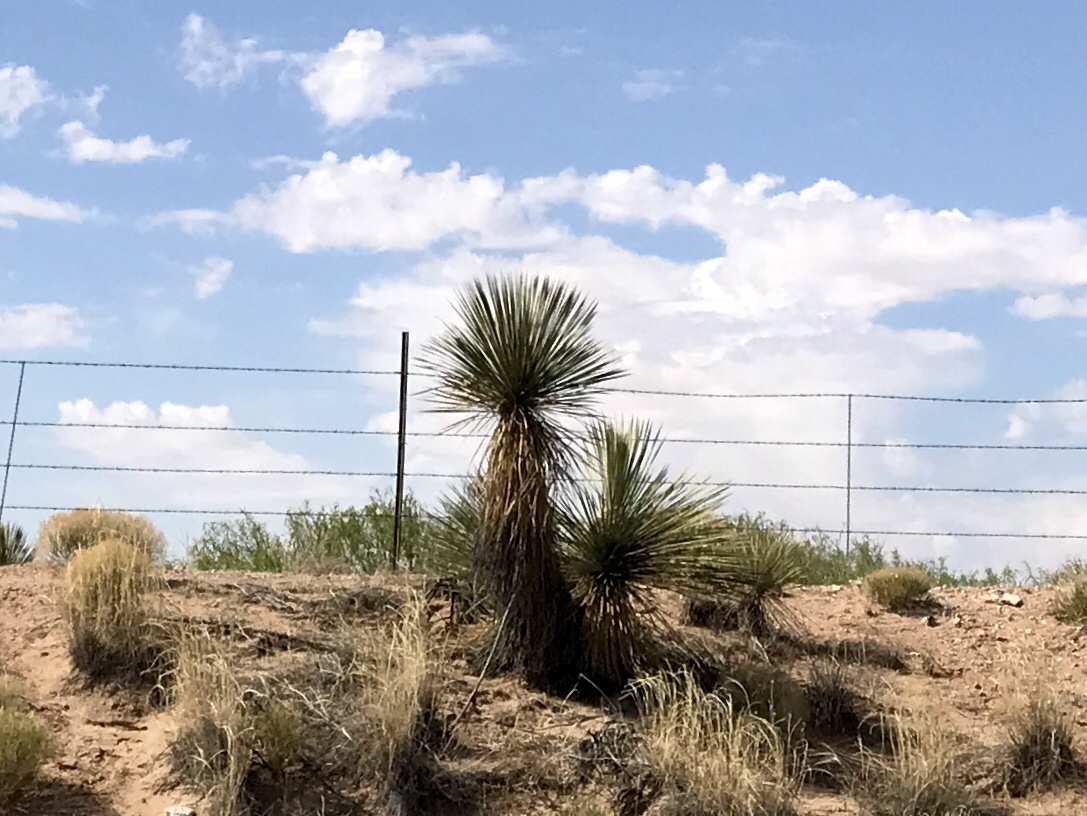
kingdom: Plantae
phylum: Tracheophyta
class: Liliopsida
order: Asparagales
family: Asparagaceae
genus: Yucca
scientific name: Yucca elata
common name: Palmella
